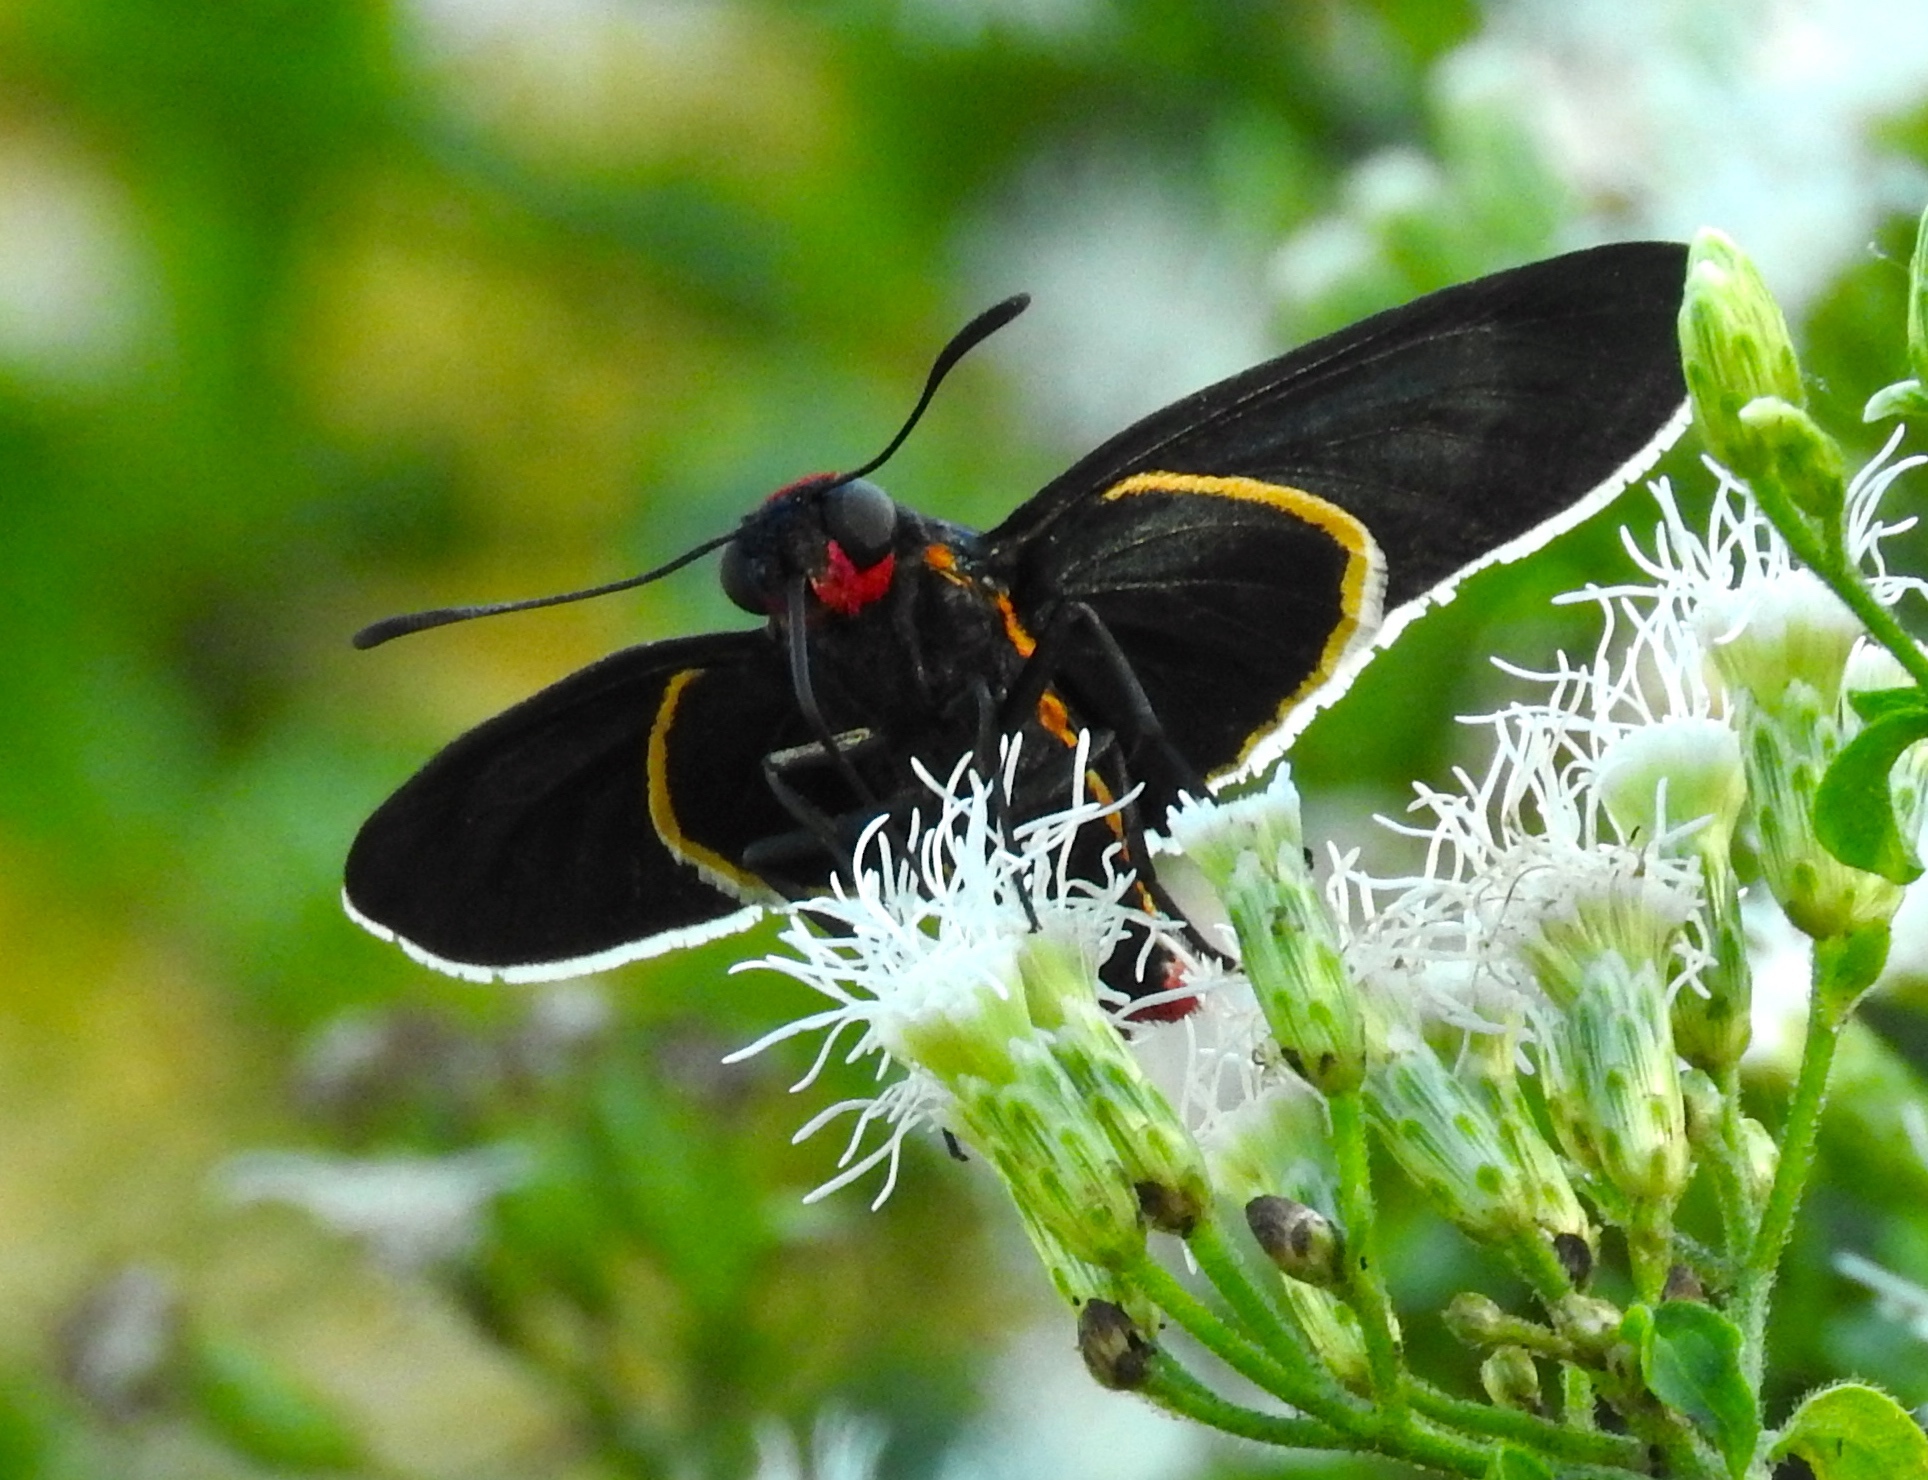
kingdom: Animalia
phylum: Arthropoda
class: Insecta
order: Lepidoptera
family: Hesperiidae
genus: Mysoria
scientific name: Mysoria affinis
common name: Red-collared firetip
